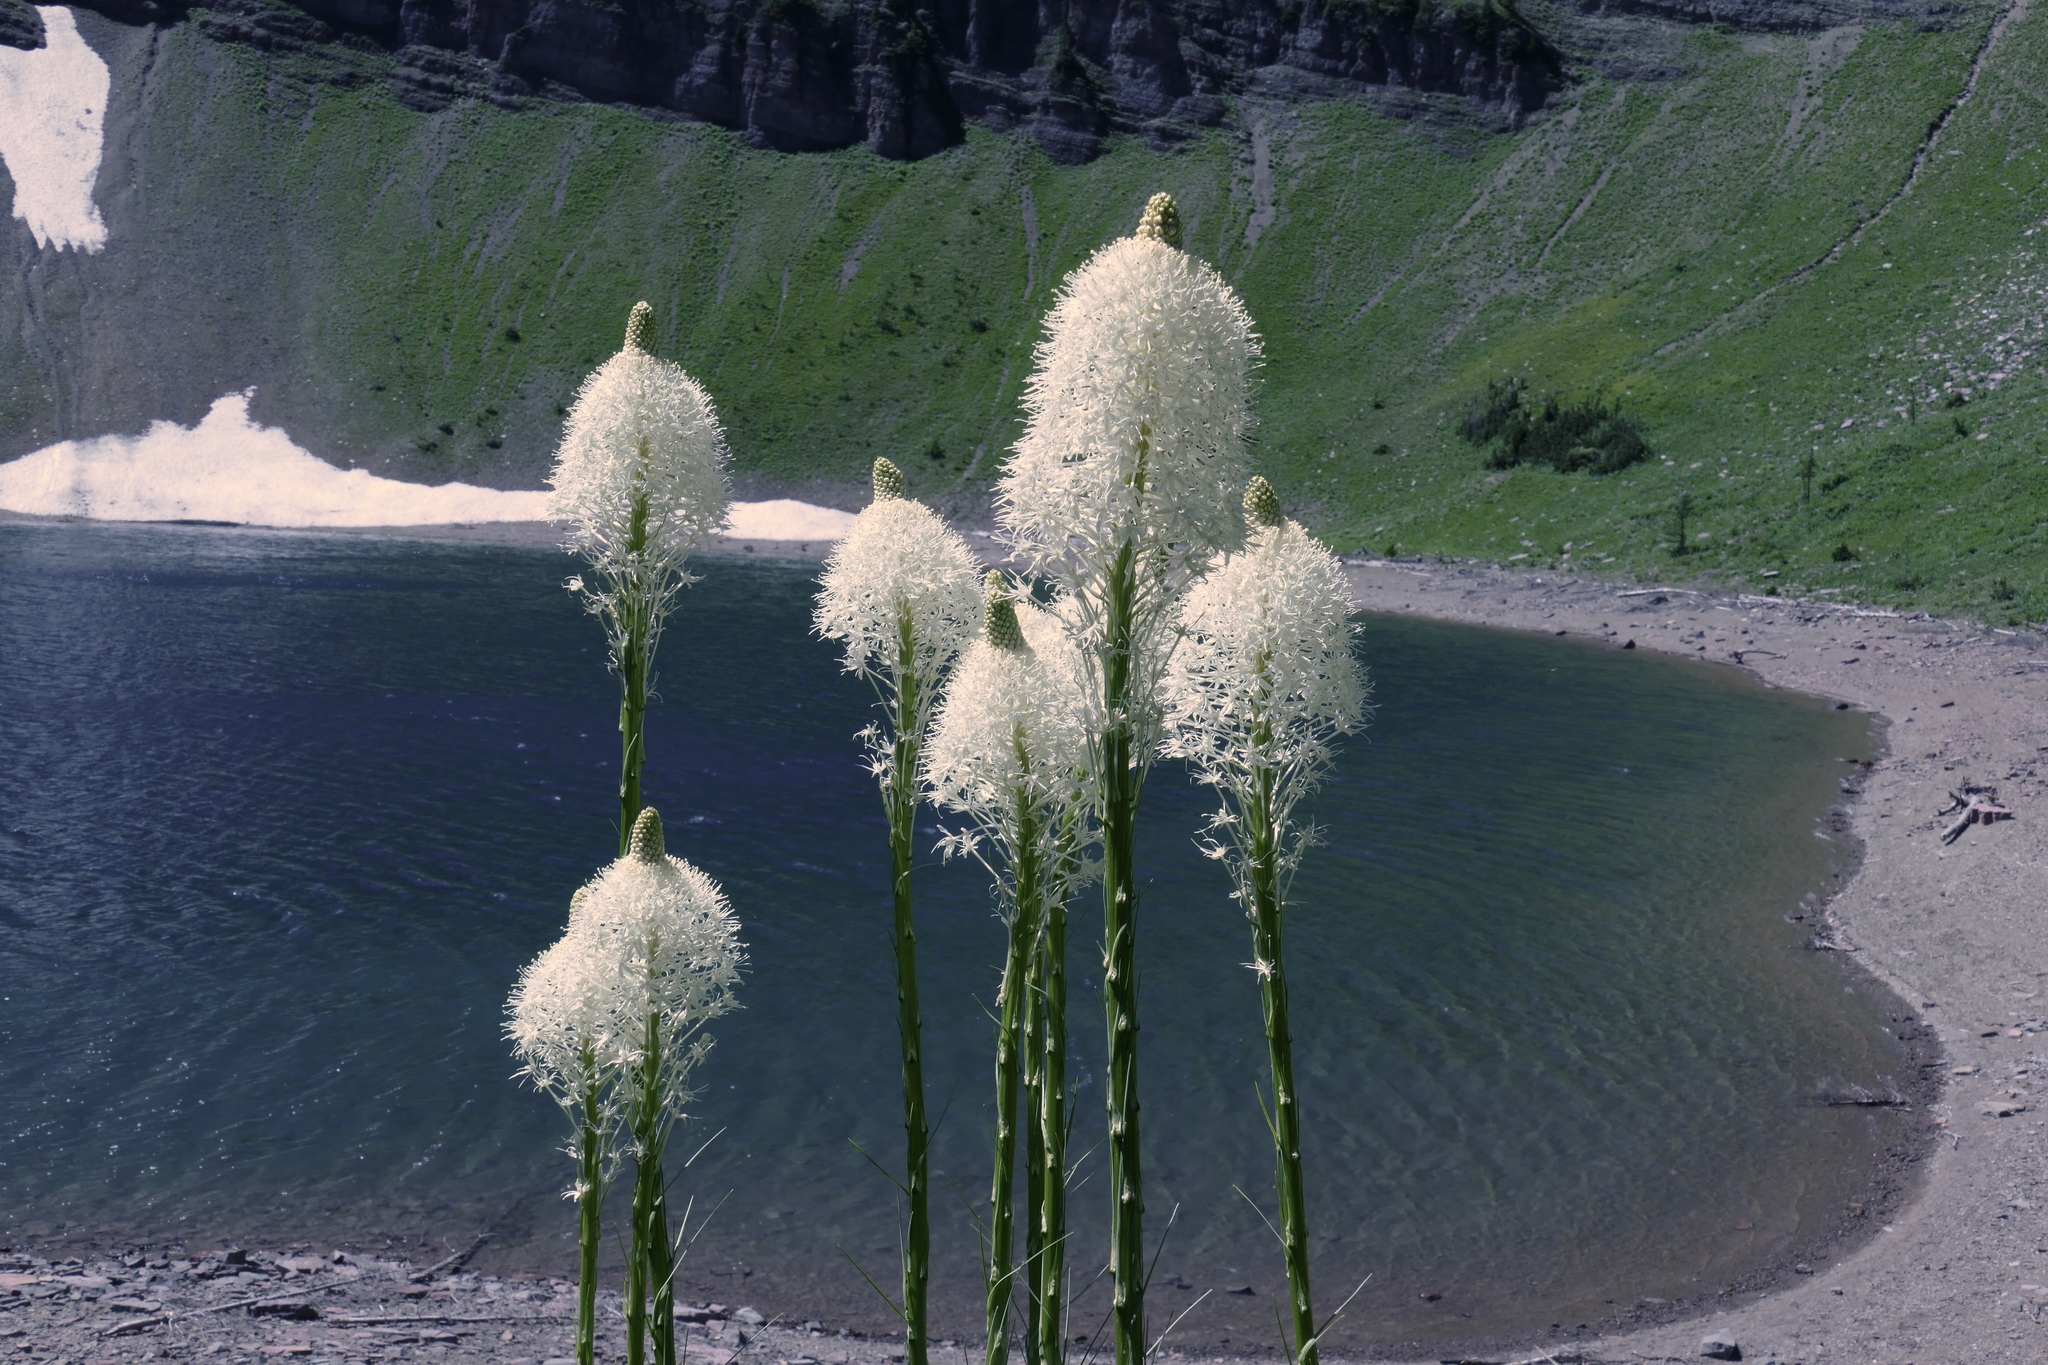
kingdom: Plantae
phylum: Tracheophyta
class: Liliopsida
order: Liliales
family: Melanthiaceae
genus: Xerophyllum
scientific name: Xerophyllum tenax
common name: Bear-grass
